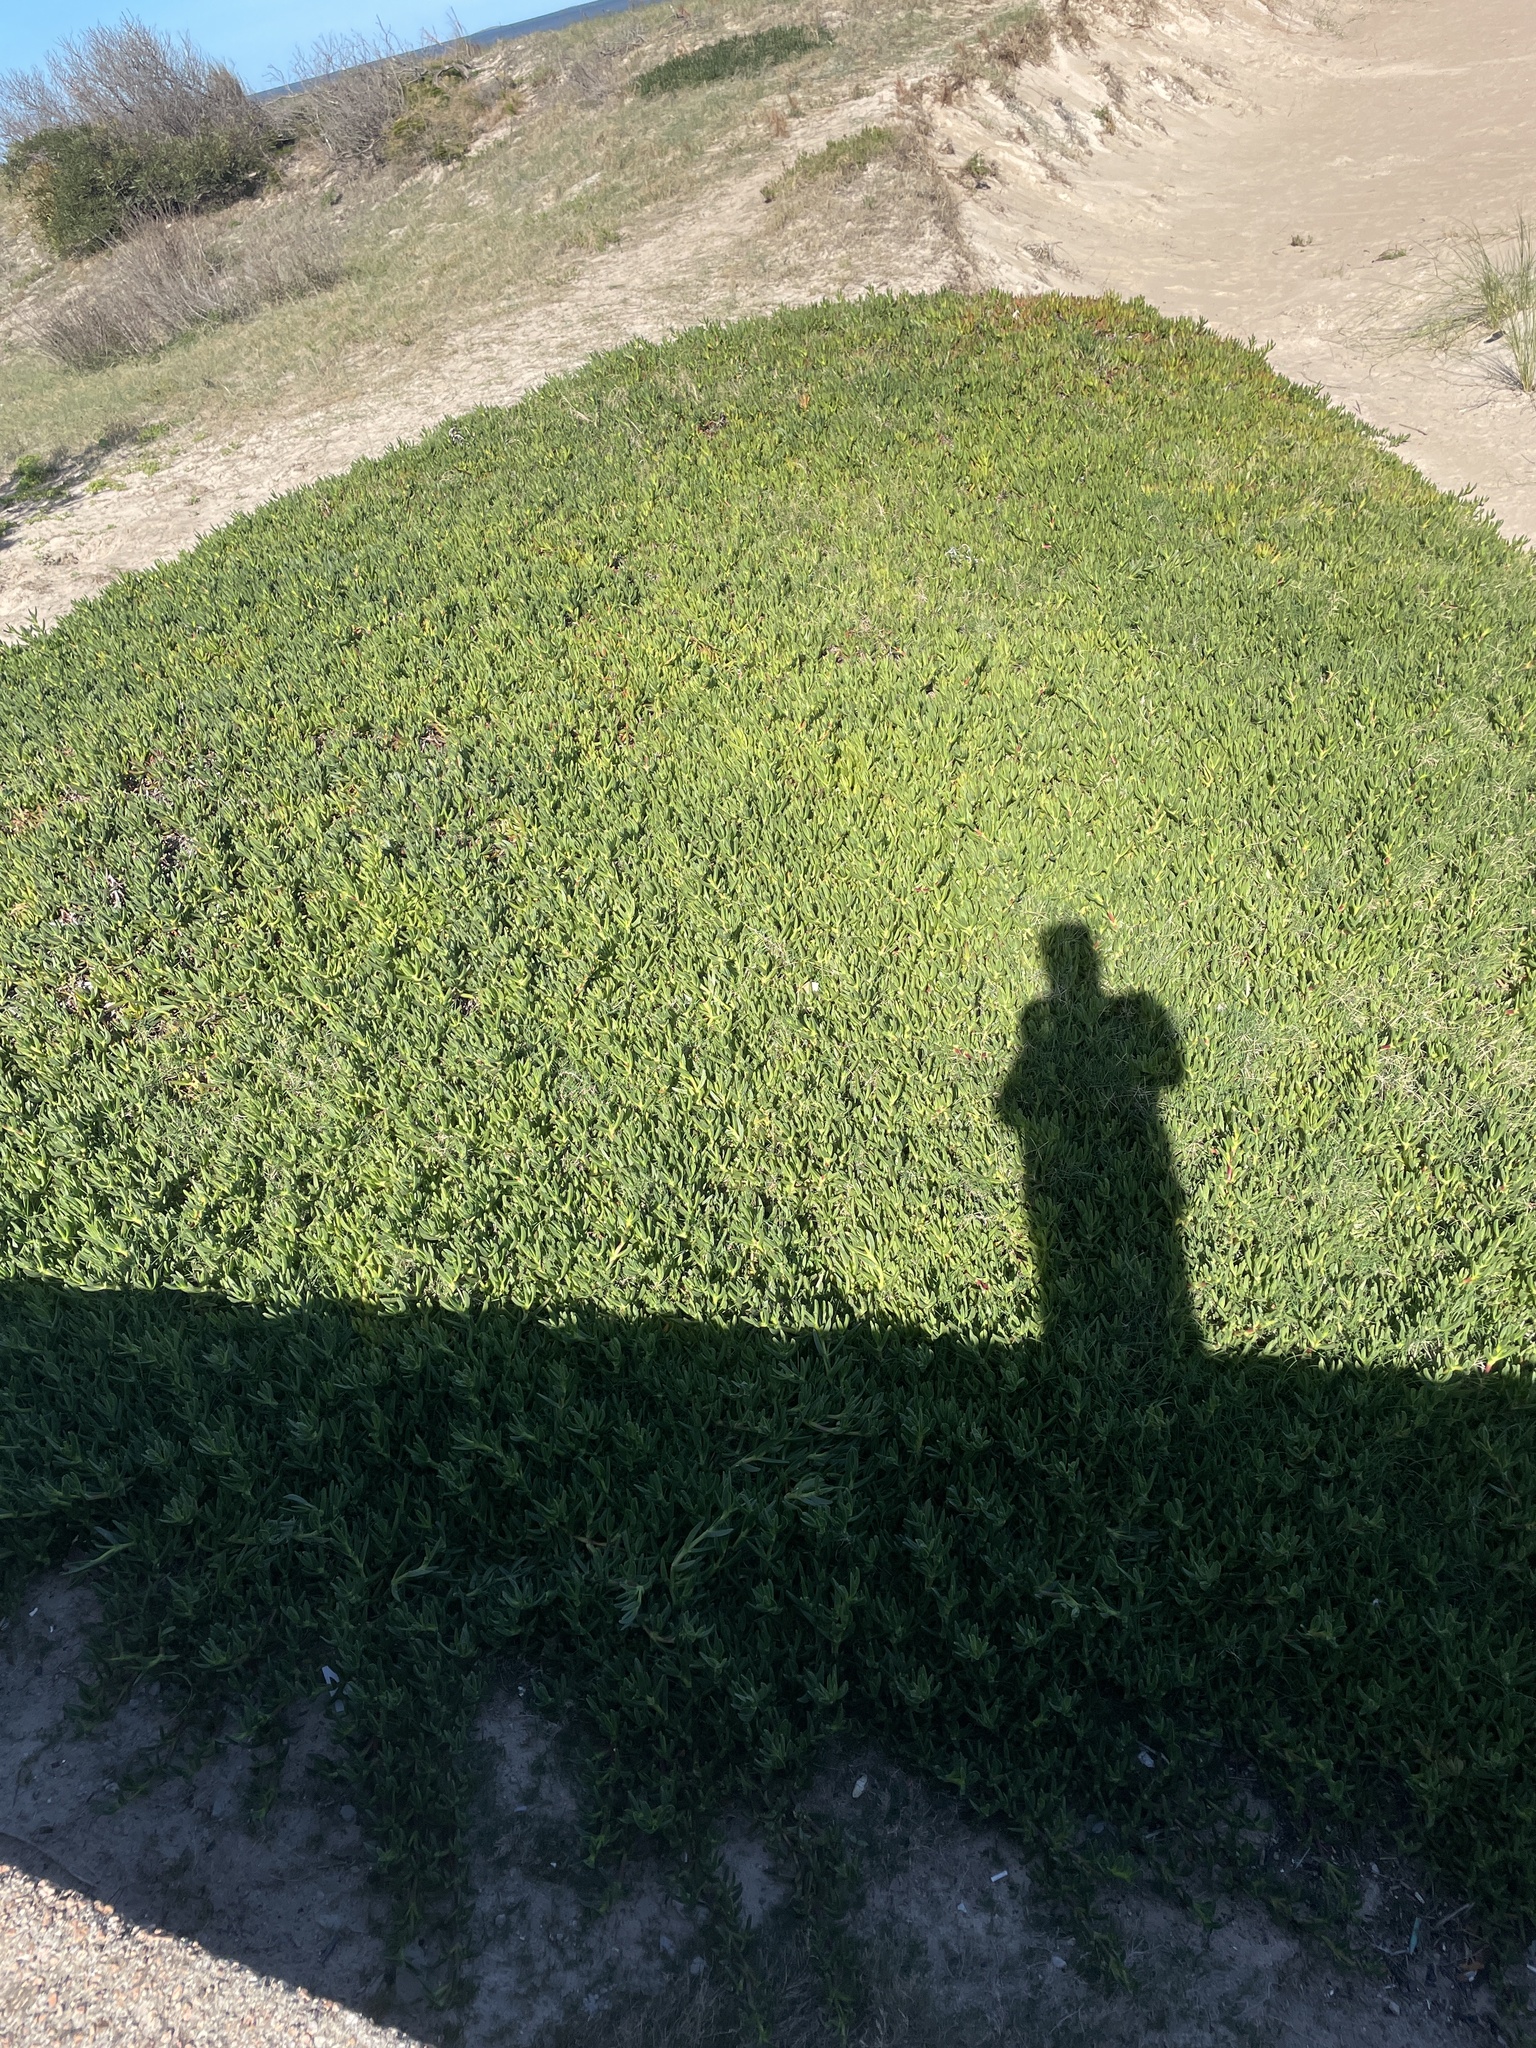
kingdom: Plantae
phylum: Tracheophyta
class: Magnoliopsida
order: Caryophyllales
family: Aizoaceae
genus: Carpobrotus
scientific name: Carpobrotus edulis
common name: Hottentot-fig
